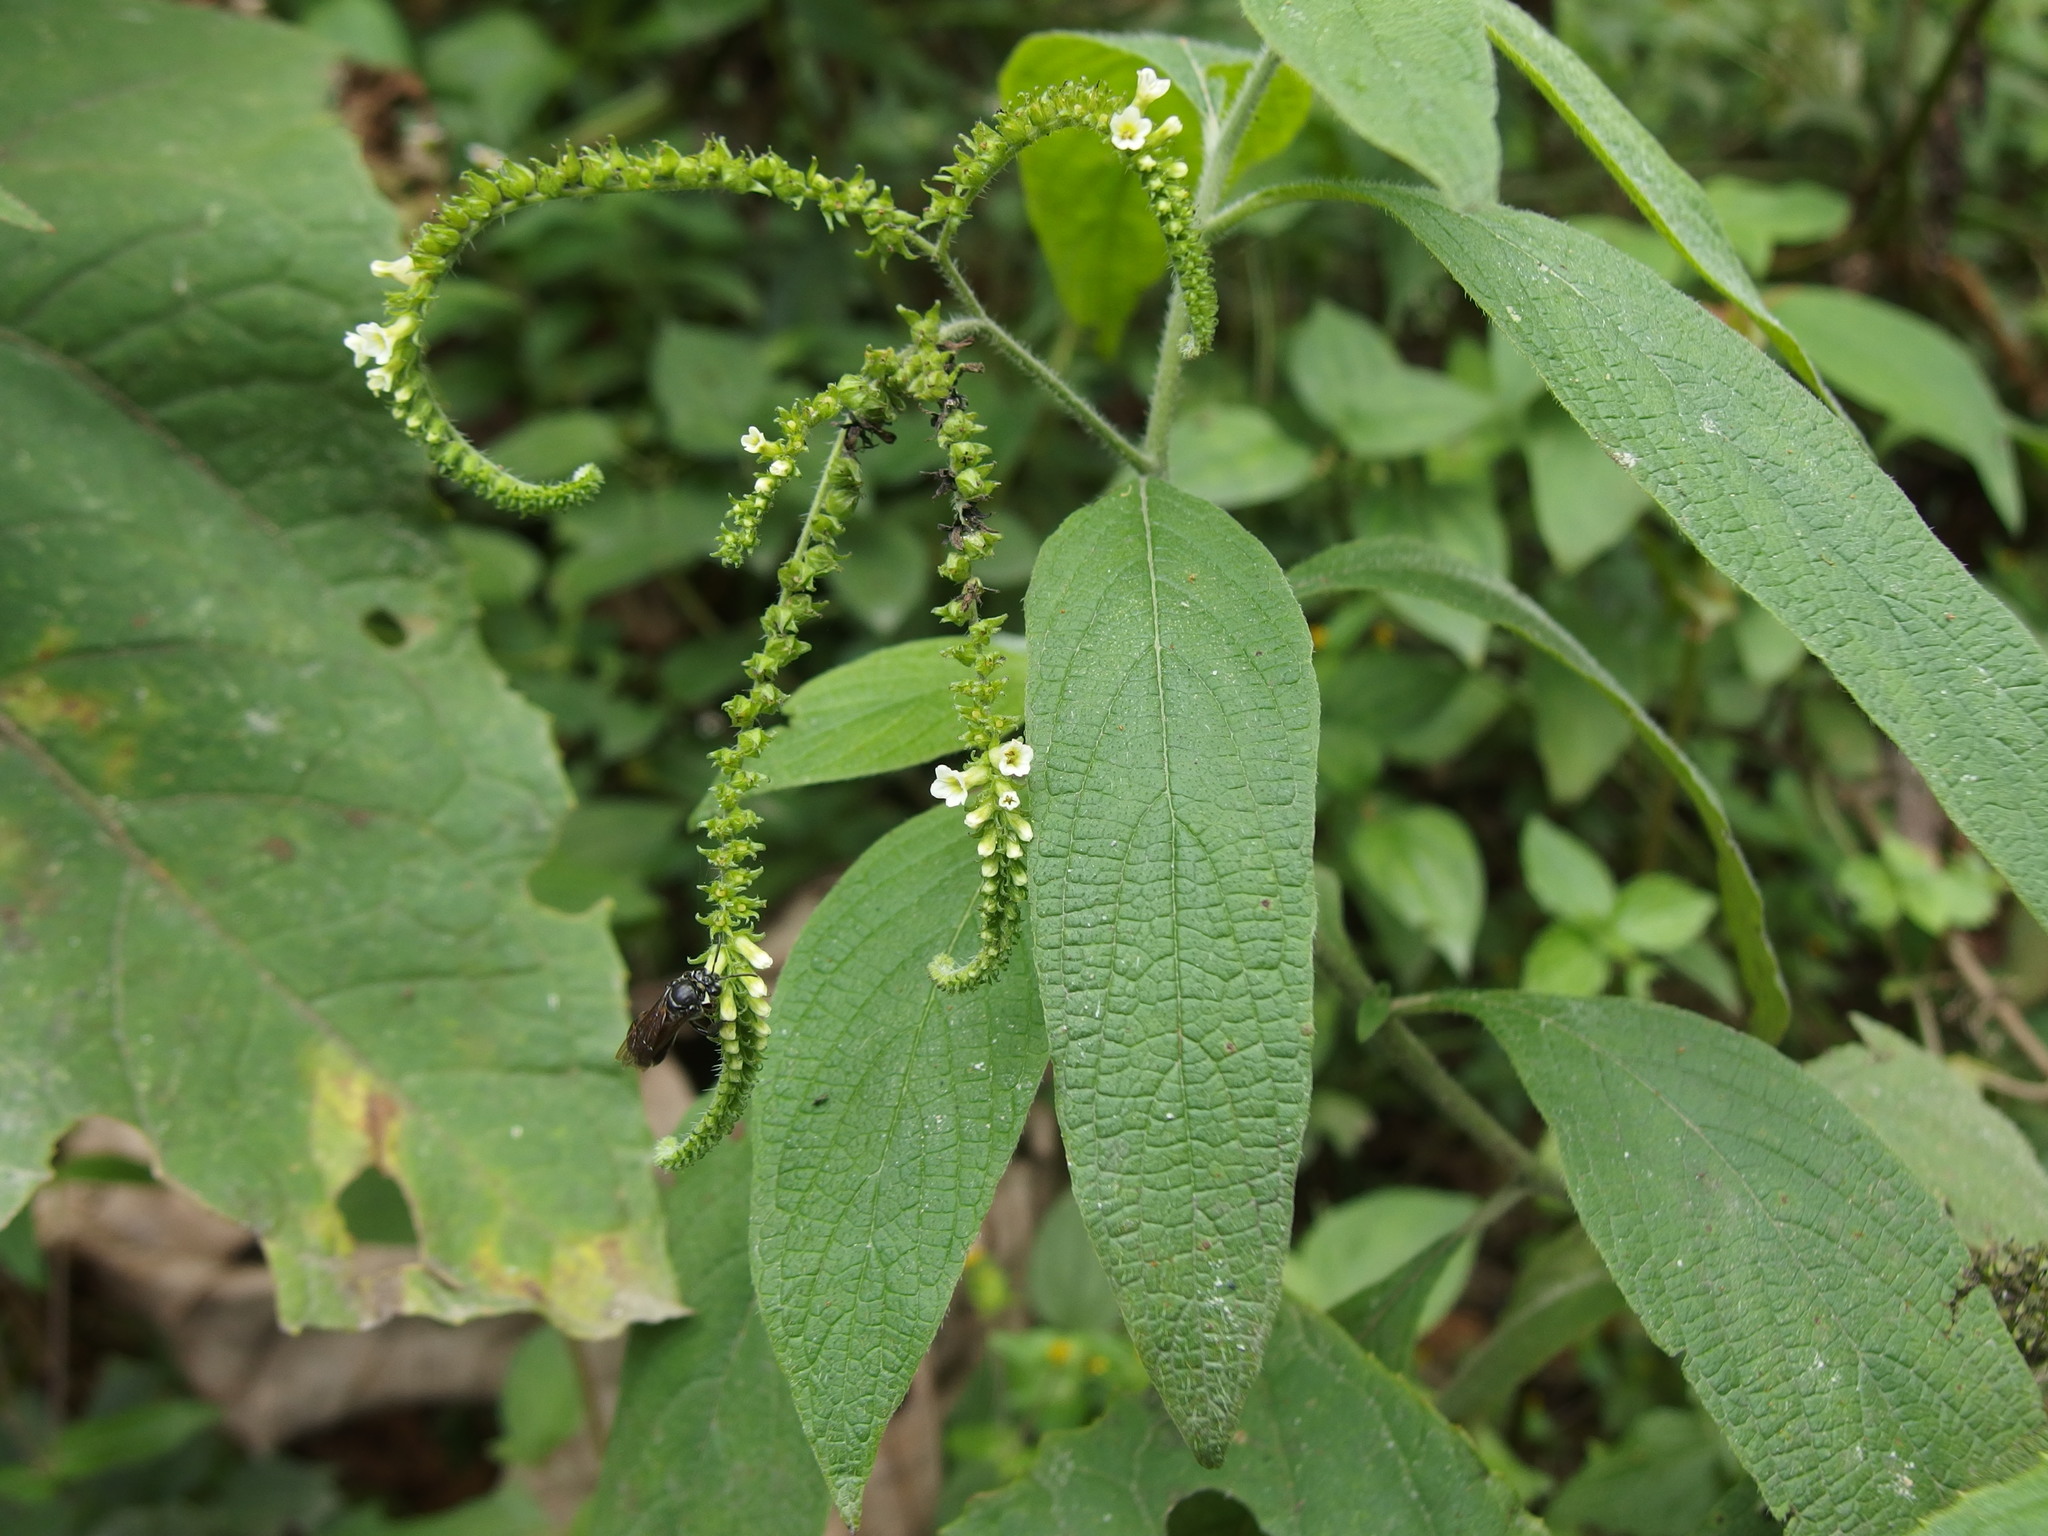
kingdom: Plantae
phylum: Tracheophyta
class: Magnoliopsida
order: Boraginales
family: Heliotropiaceae
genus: Heliotropium
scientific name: Heliotropium rufipilum
